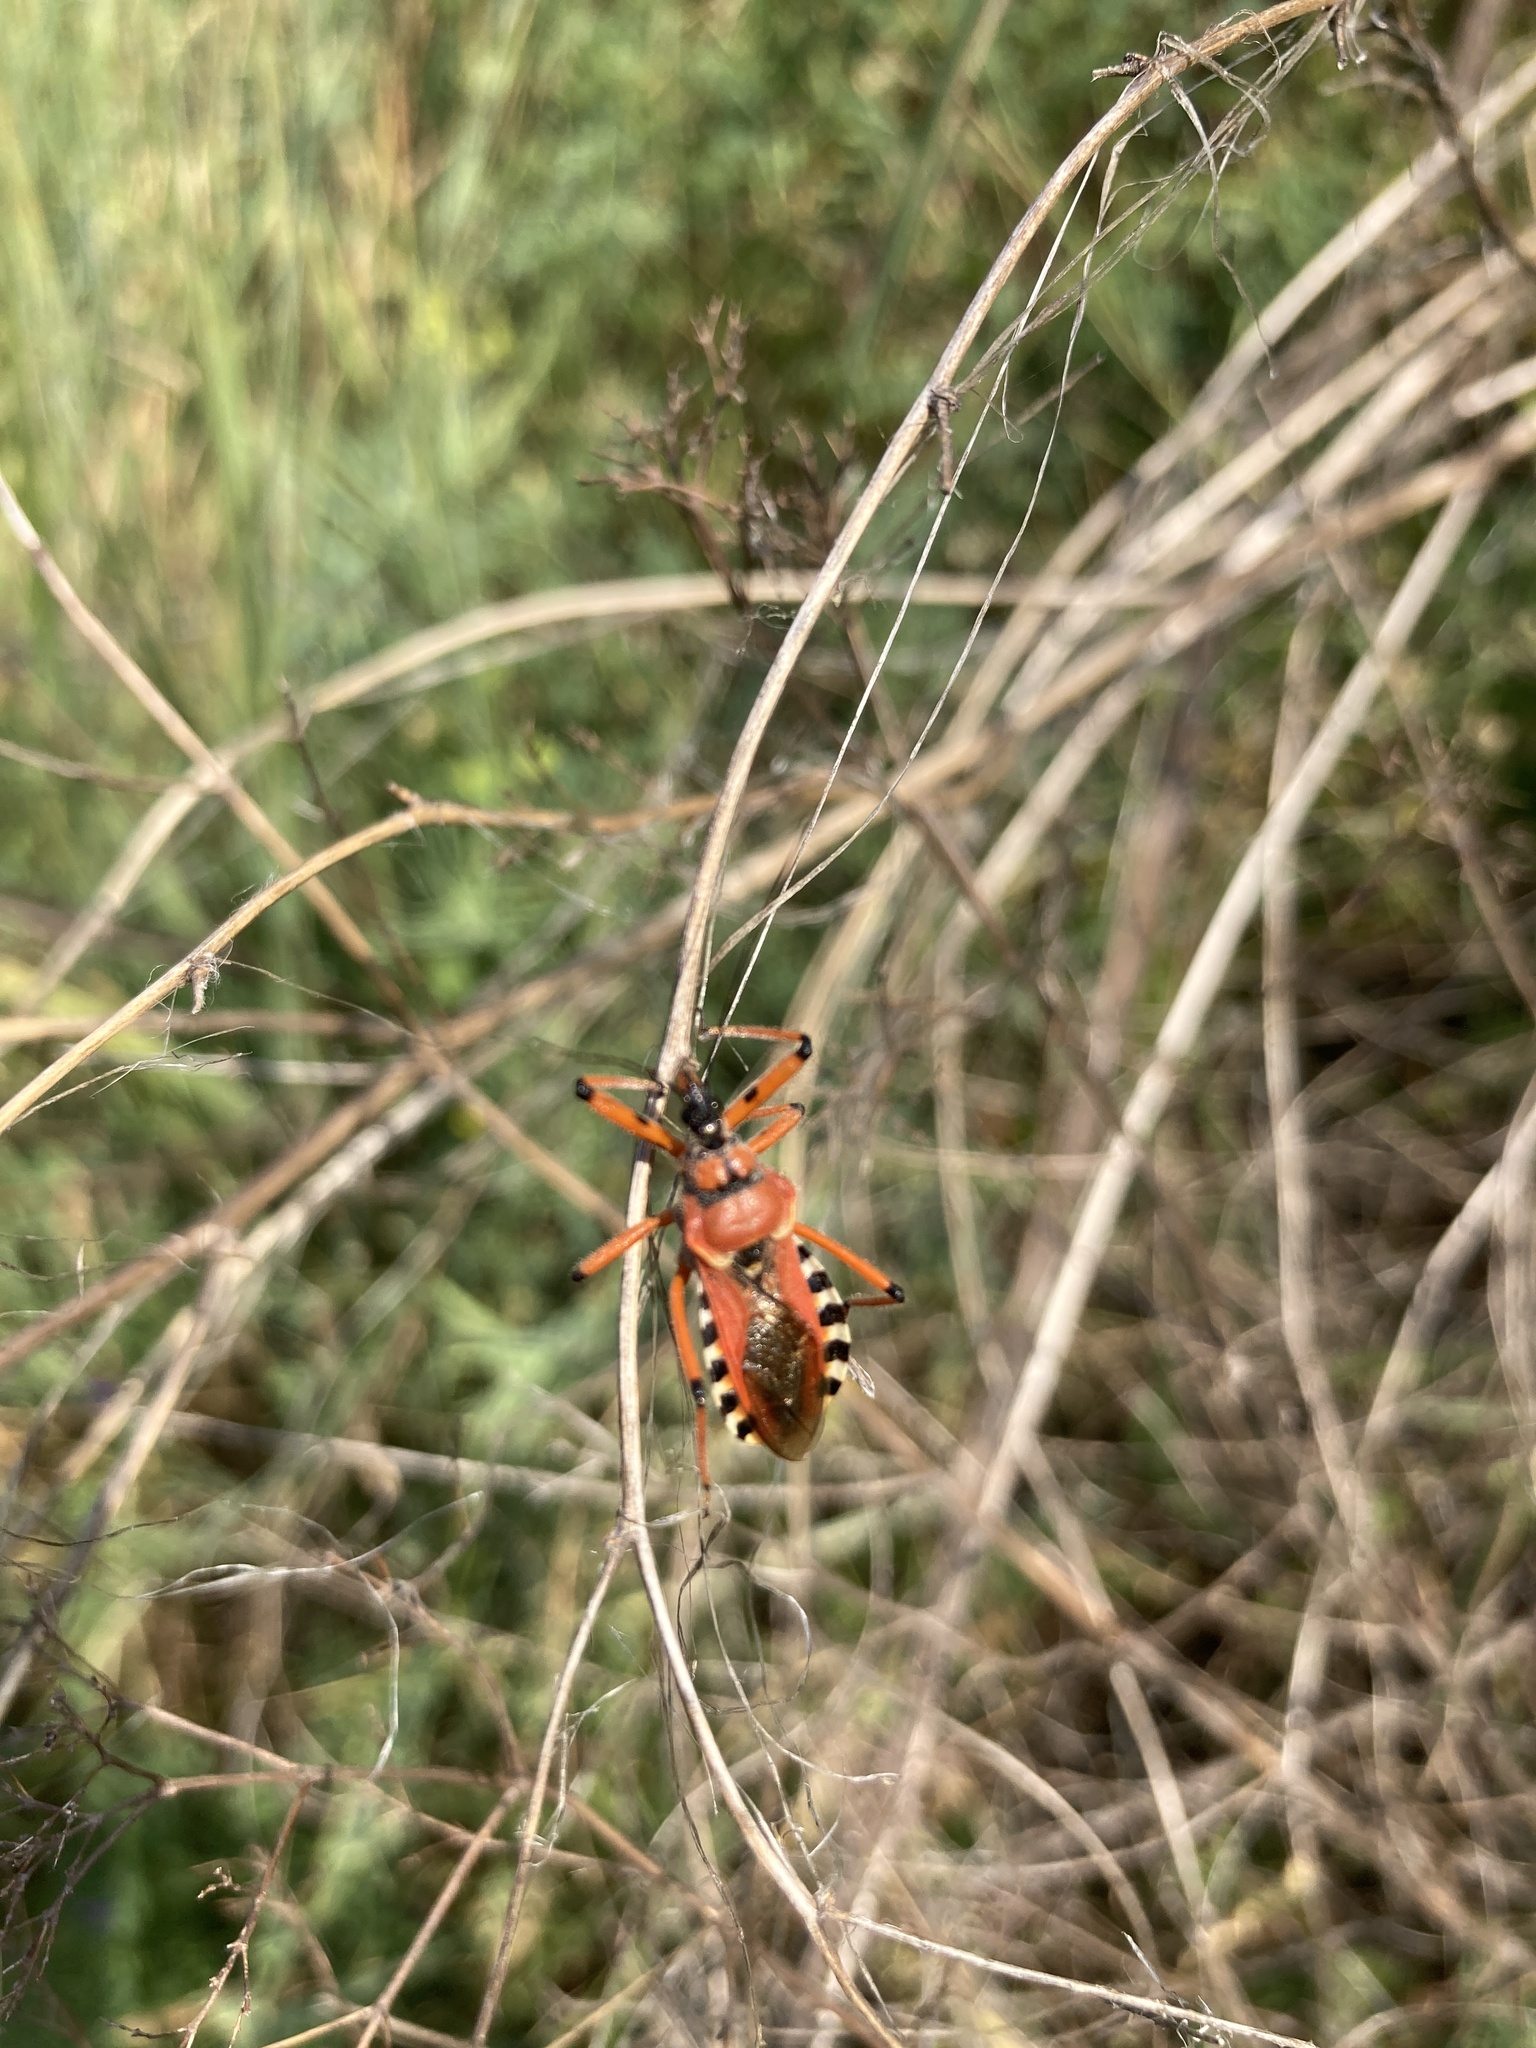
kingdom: Animalia
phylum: Arthropoda
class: Insecta
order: Hemiptera
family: Reduviidae
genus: Rhynocoris
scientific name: Rhynocoris iracundus
